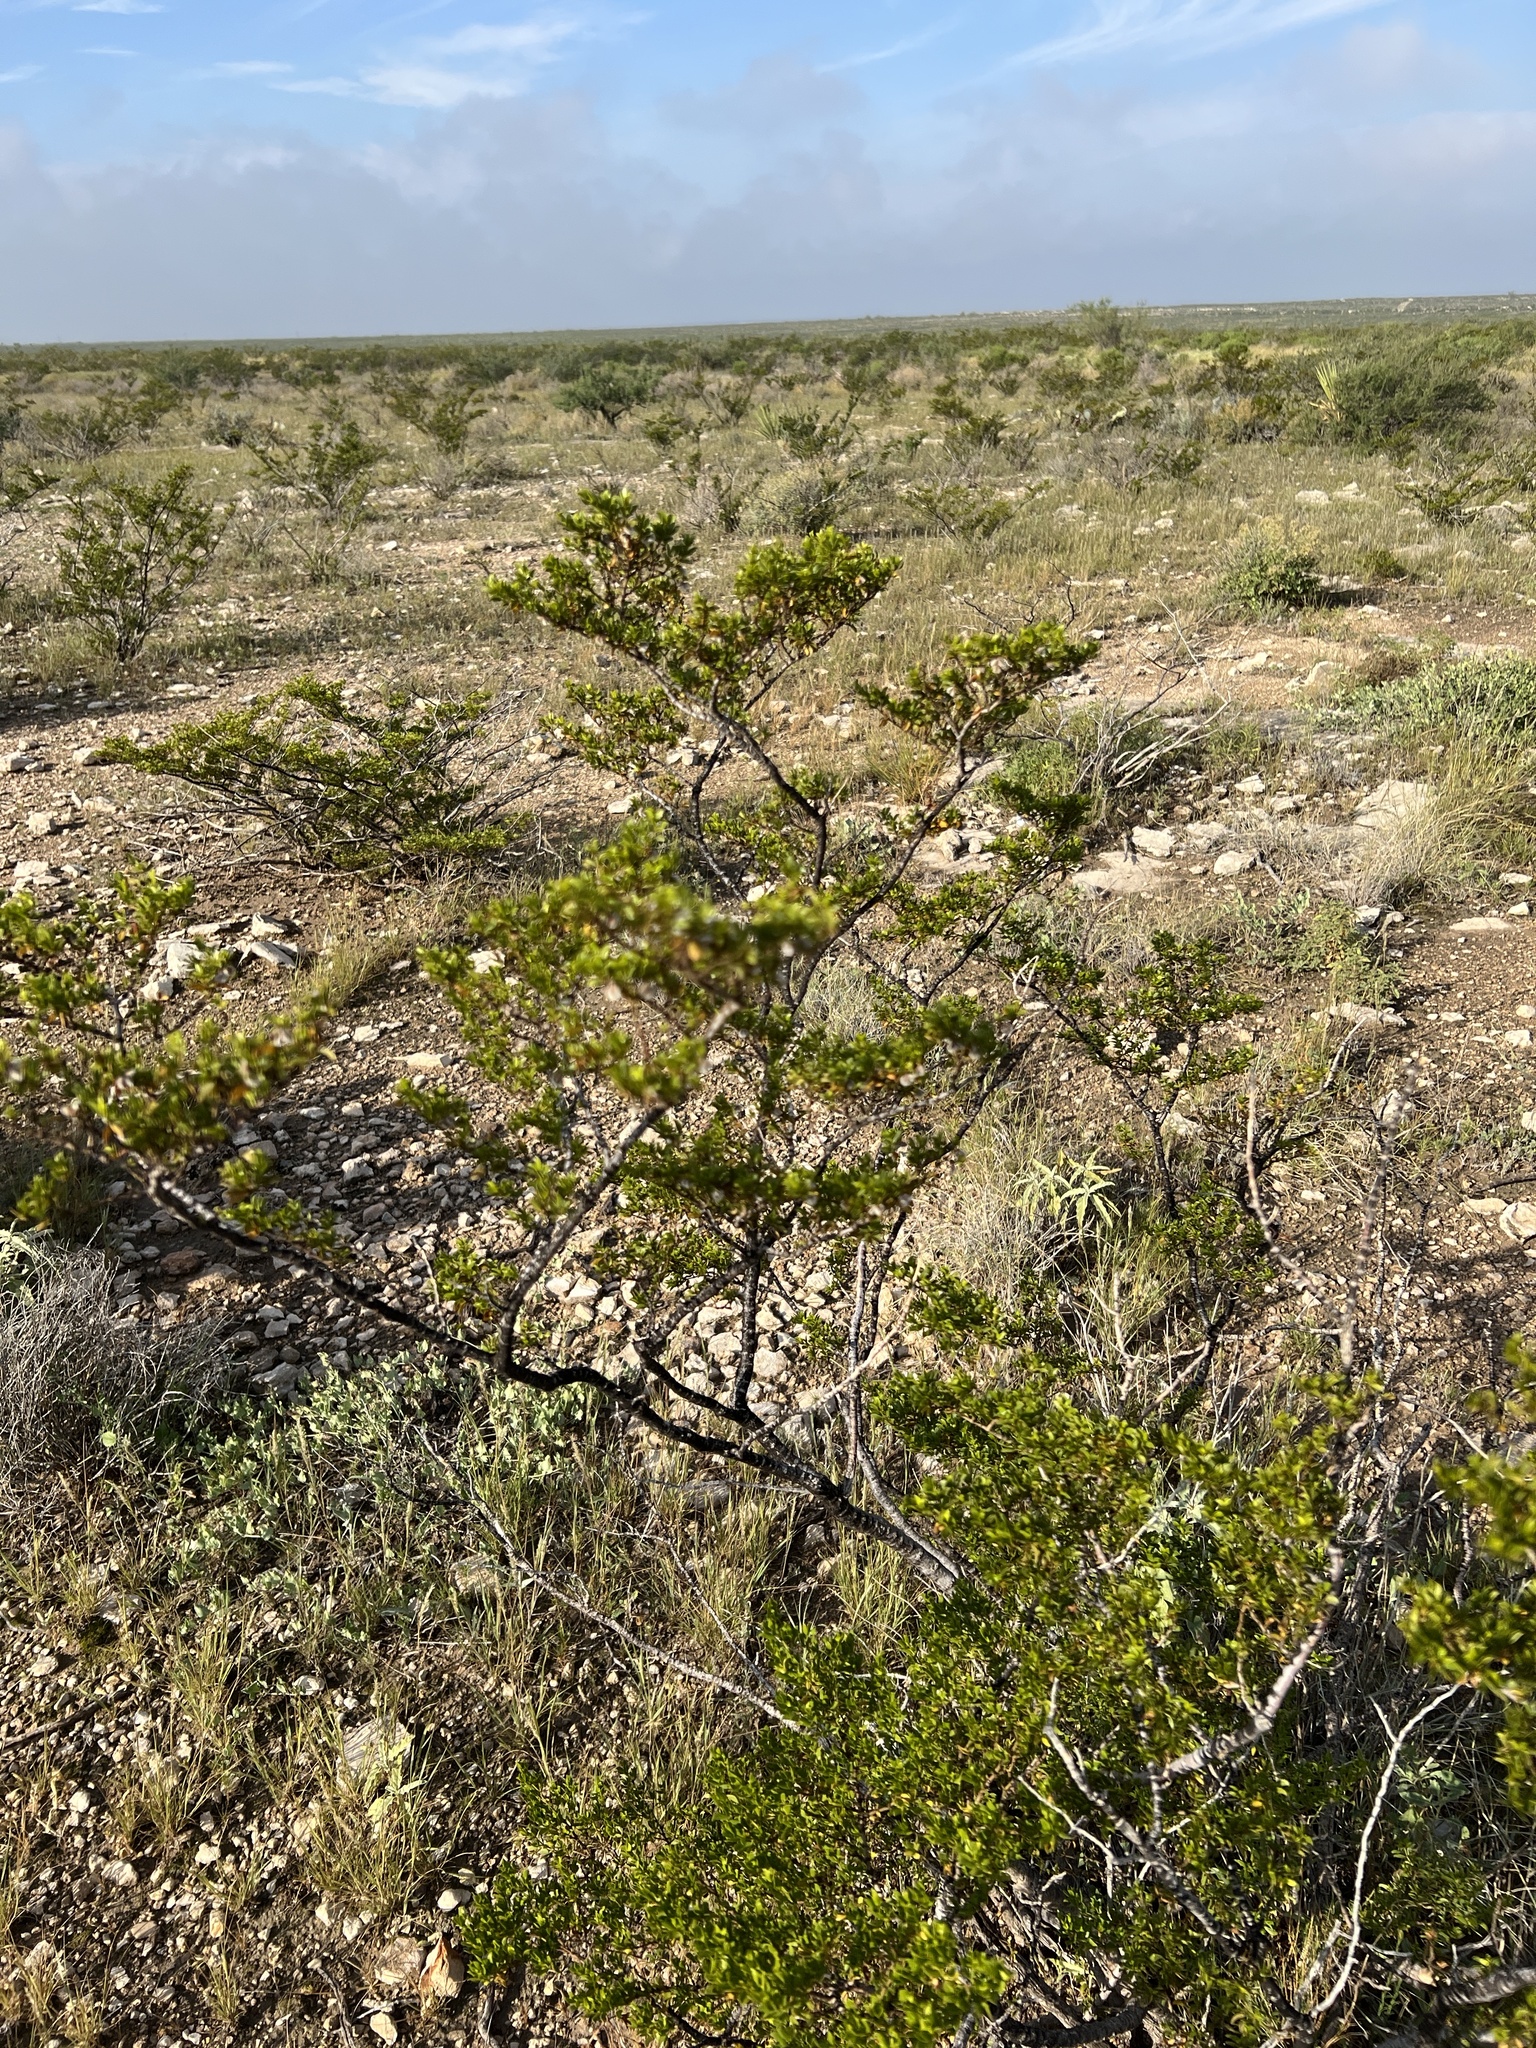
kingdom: Plantae
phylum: Tracheophyta
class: Magnoliopsida
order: Zygophyllales
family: Zygophyllaceae
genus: Larrea
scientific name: Larrea tridentata
